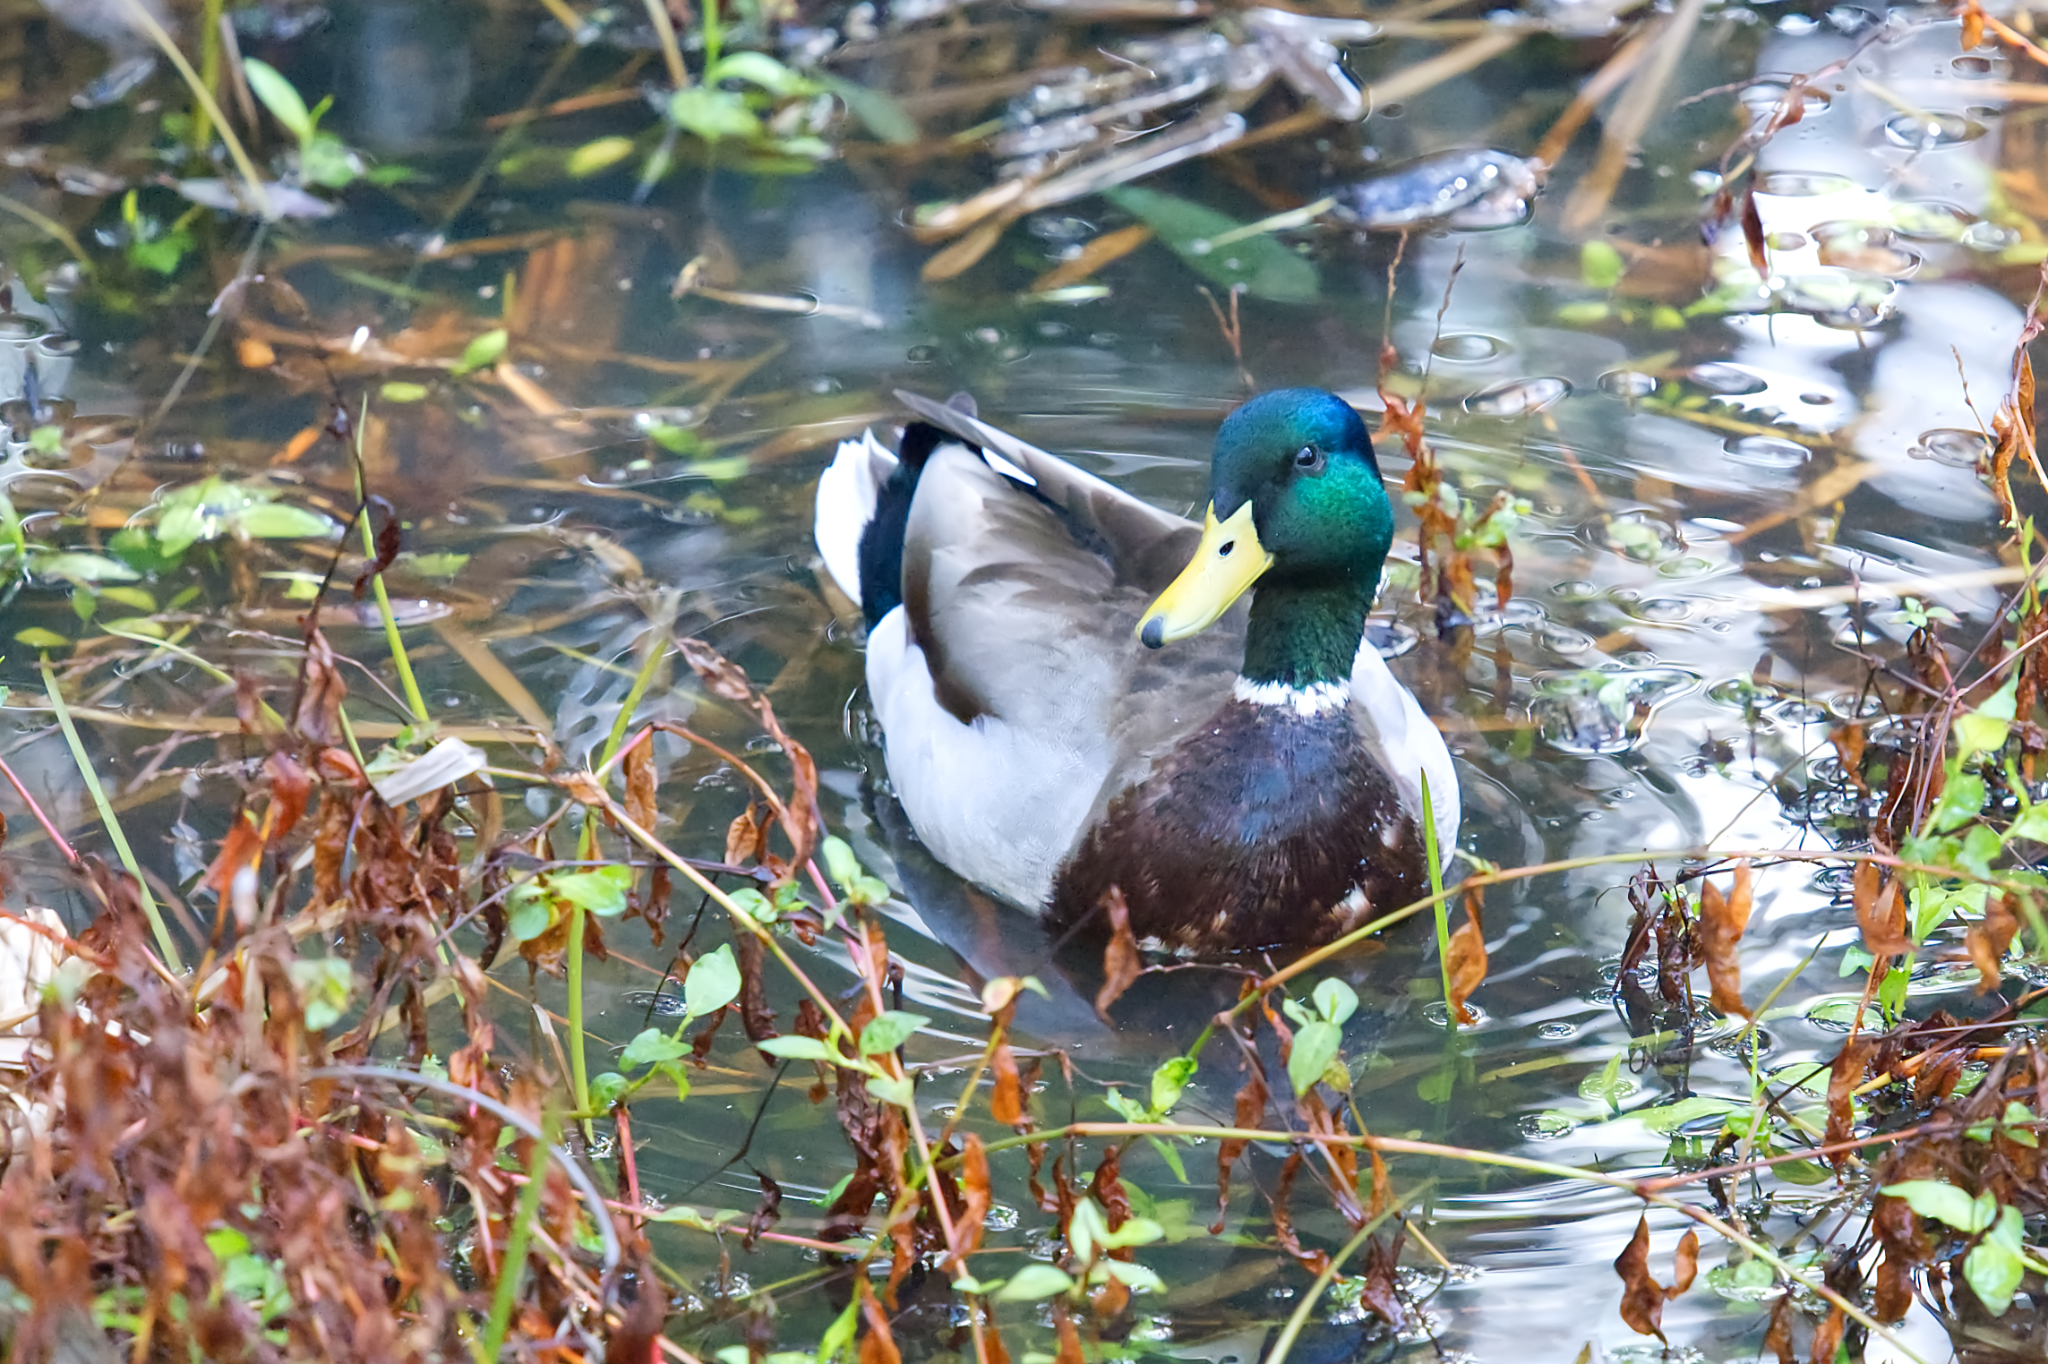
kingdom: Animalia
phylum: Chordata
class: Aves
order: Anseriformes
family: Anatidae
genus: Anas
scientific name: Anas platyrhynchos
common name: Mallard
